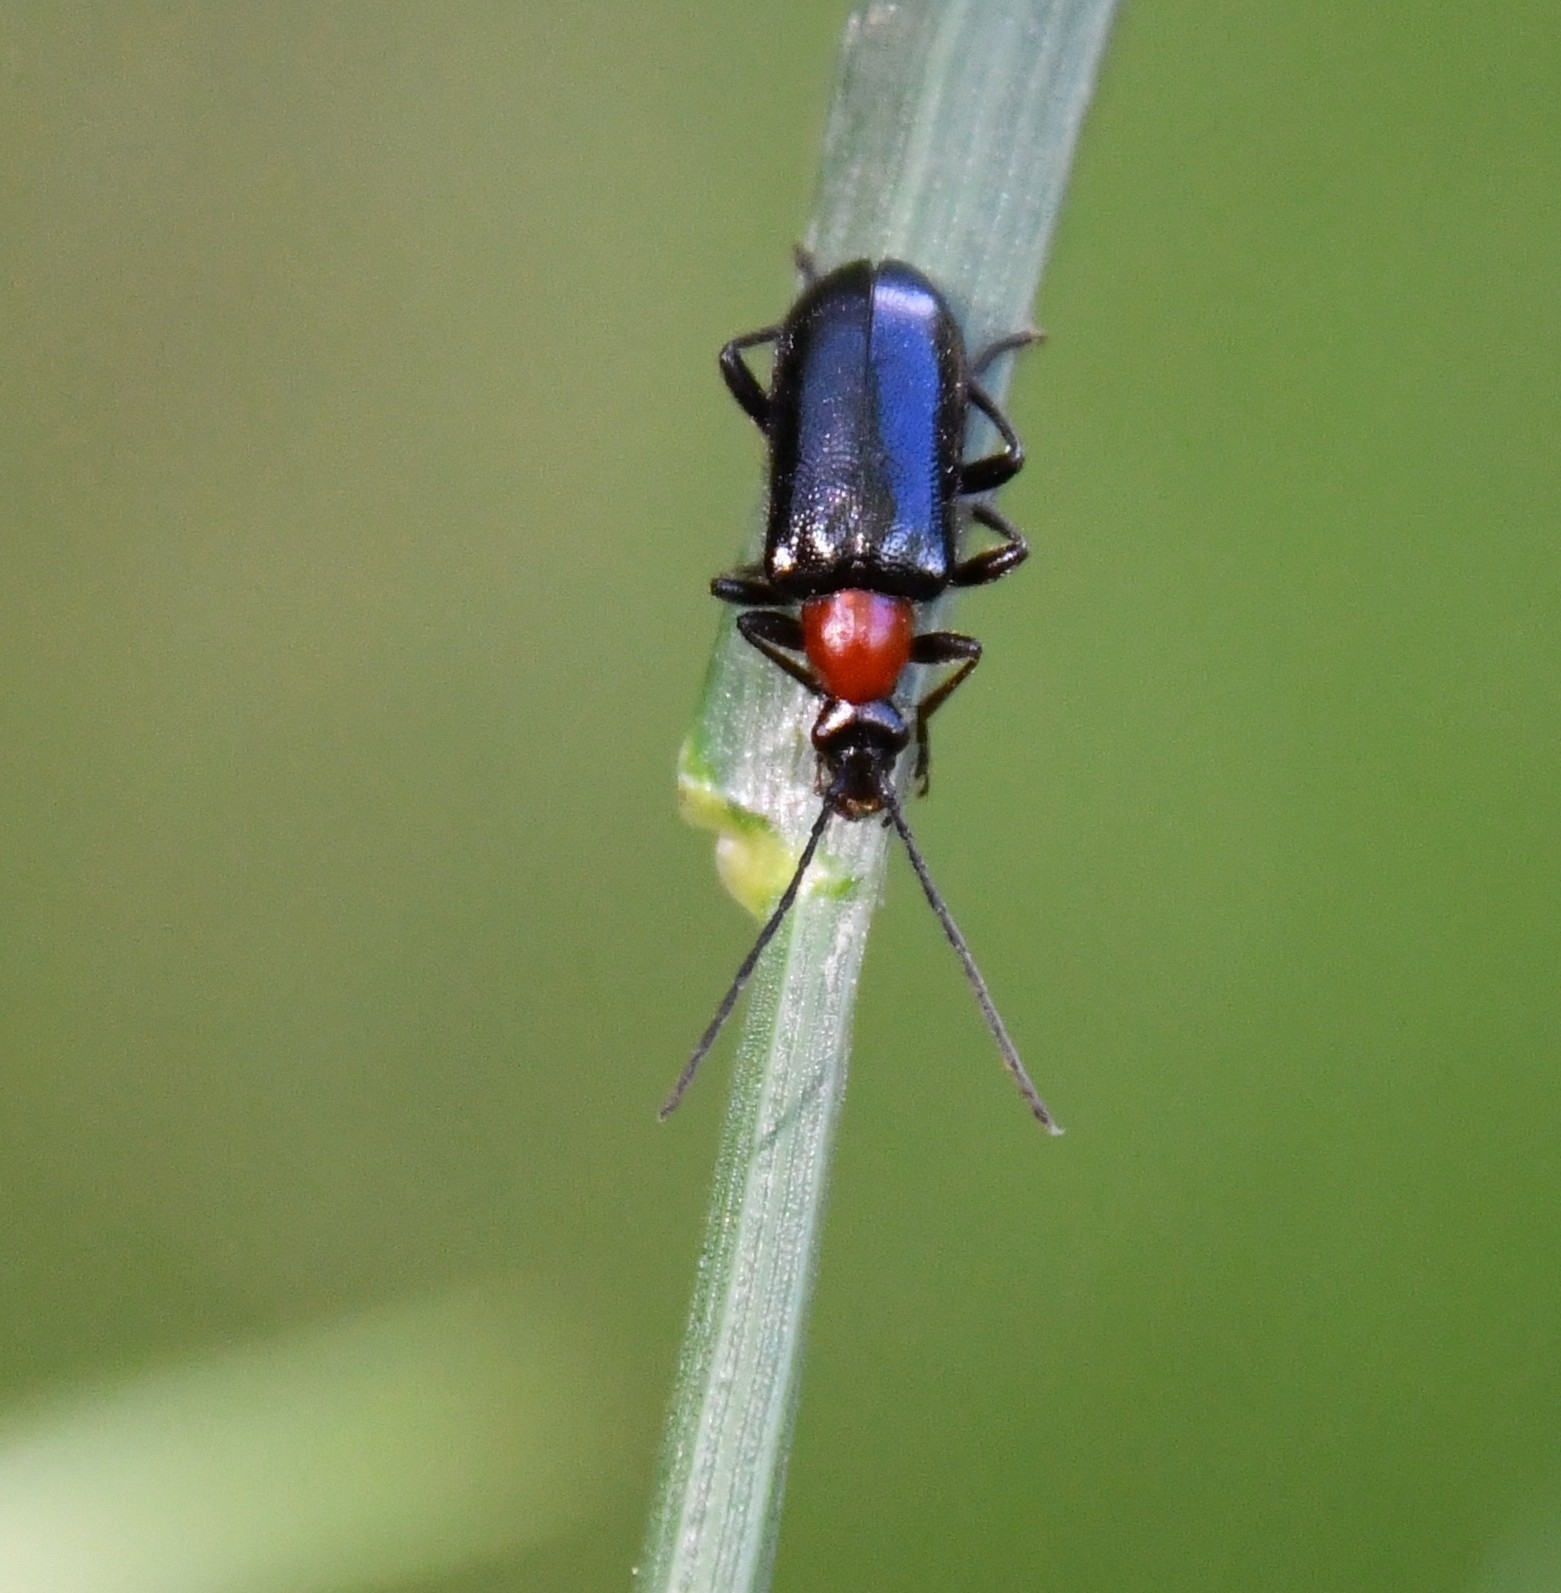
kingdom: Animalia
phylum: Arthropoda
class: Insecta
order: Coleoptera
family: Cerambycidae
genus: Dinoptera
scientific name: Dinoptera collaris
